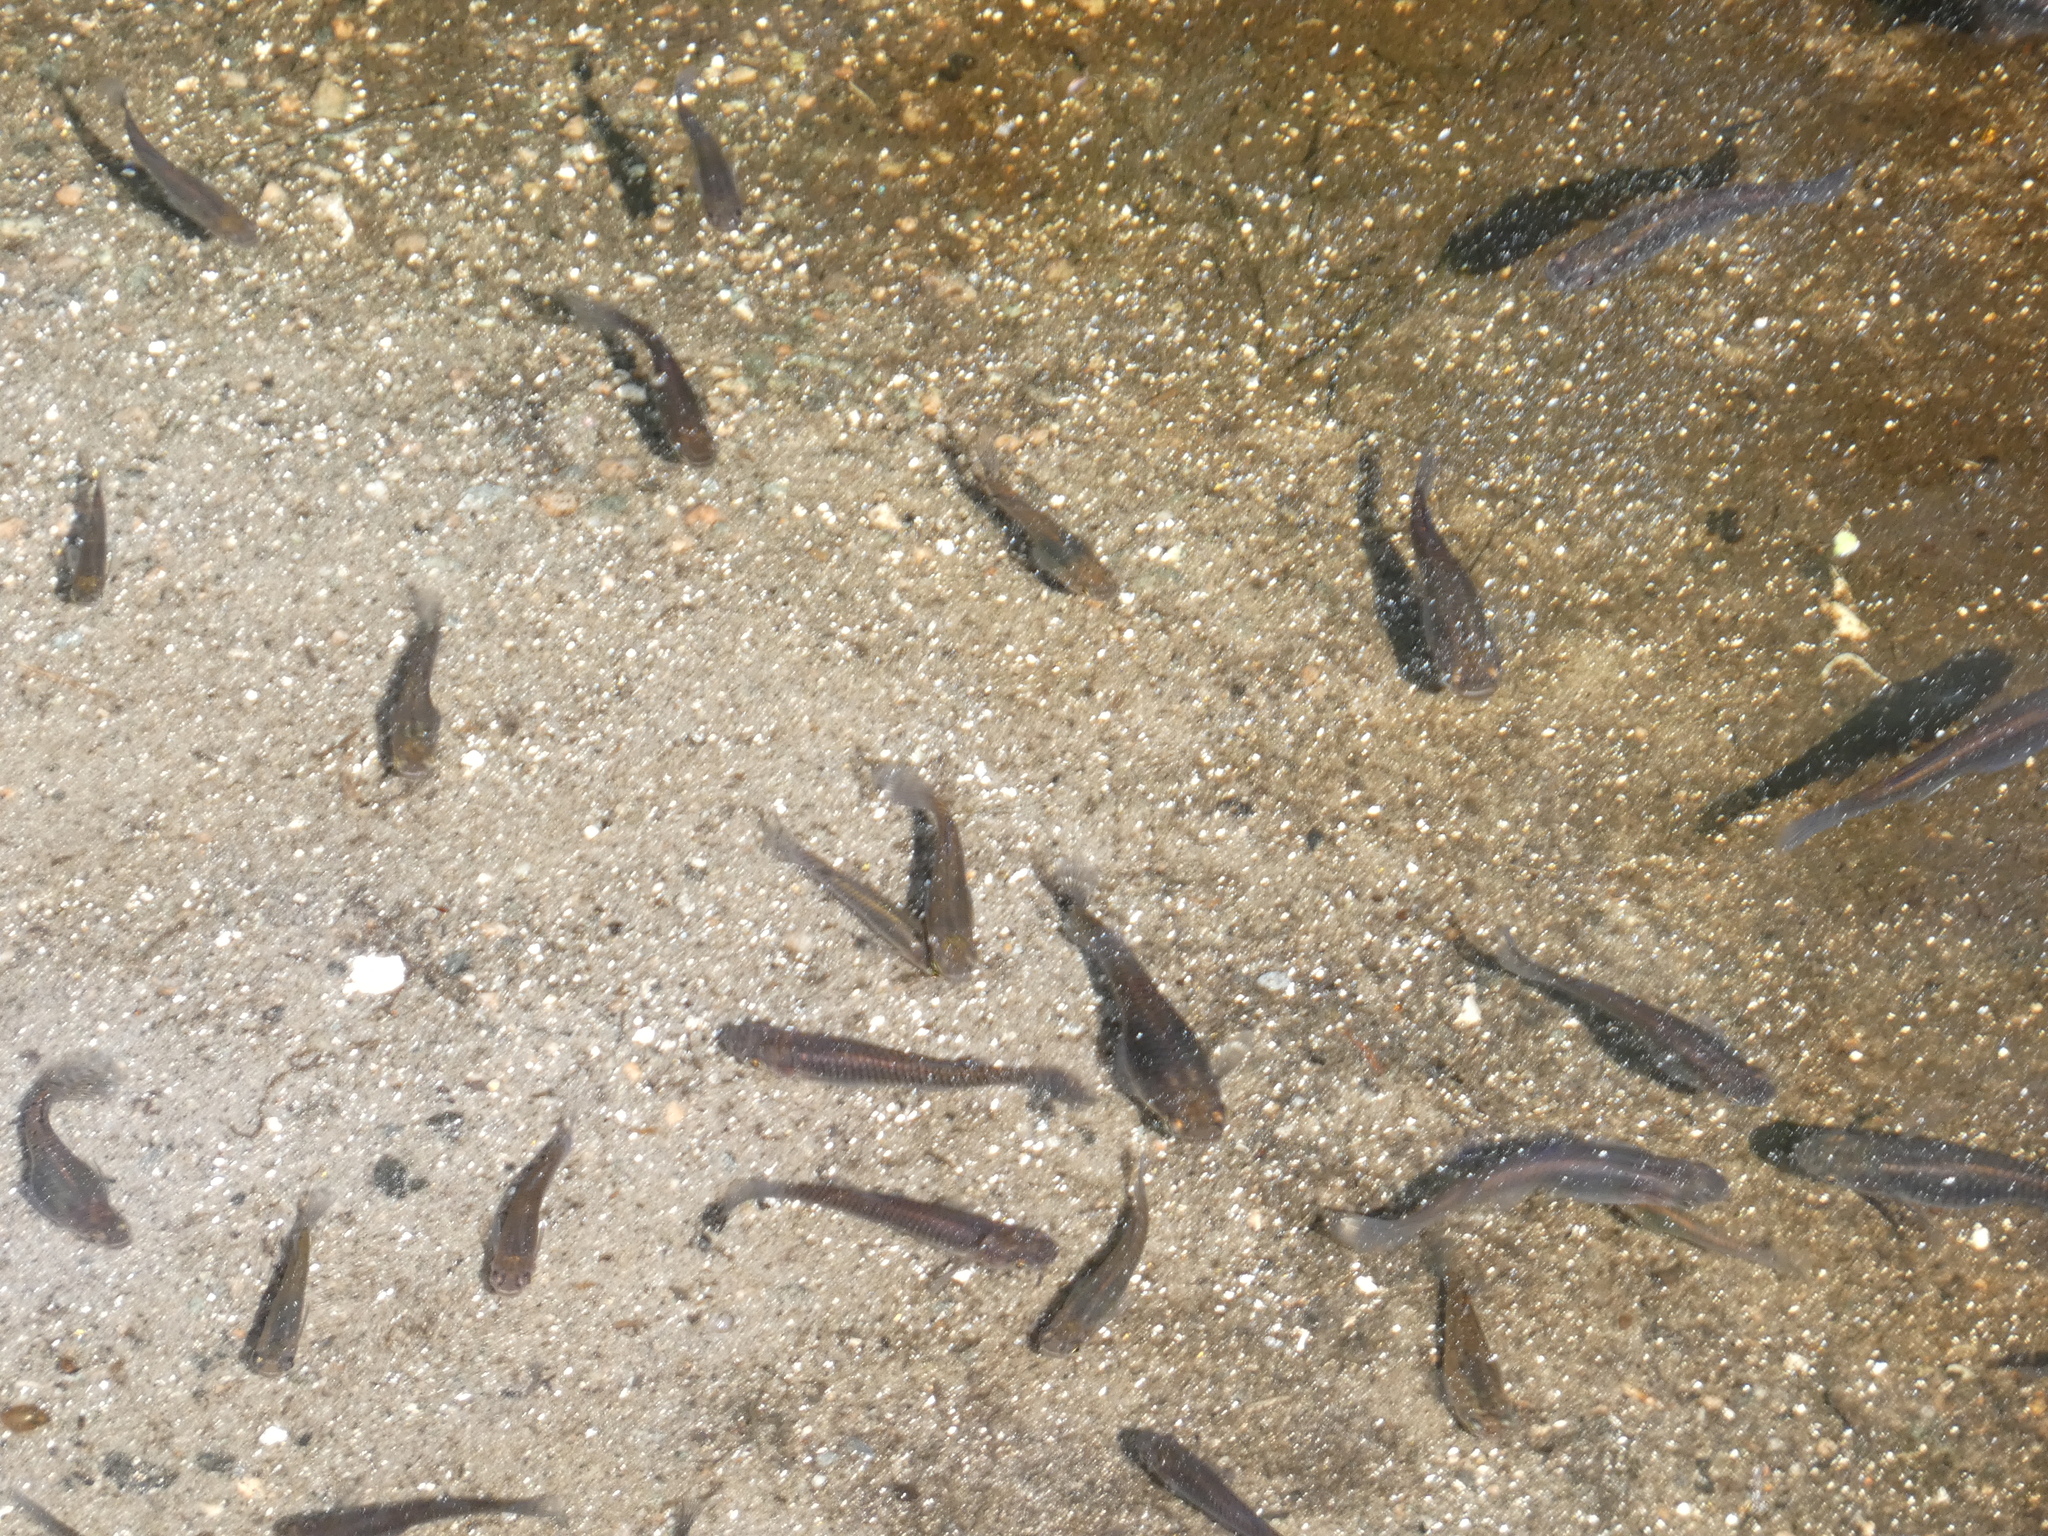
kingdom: Animalia
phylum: Chordata
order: Cyprinodontiformes
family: Poeciliidae
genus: Gambusia
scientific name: Gambusia holbrooki
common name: Eastern mosquitofish
